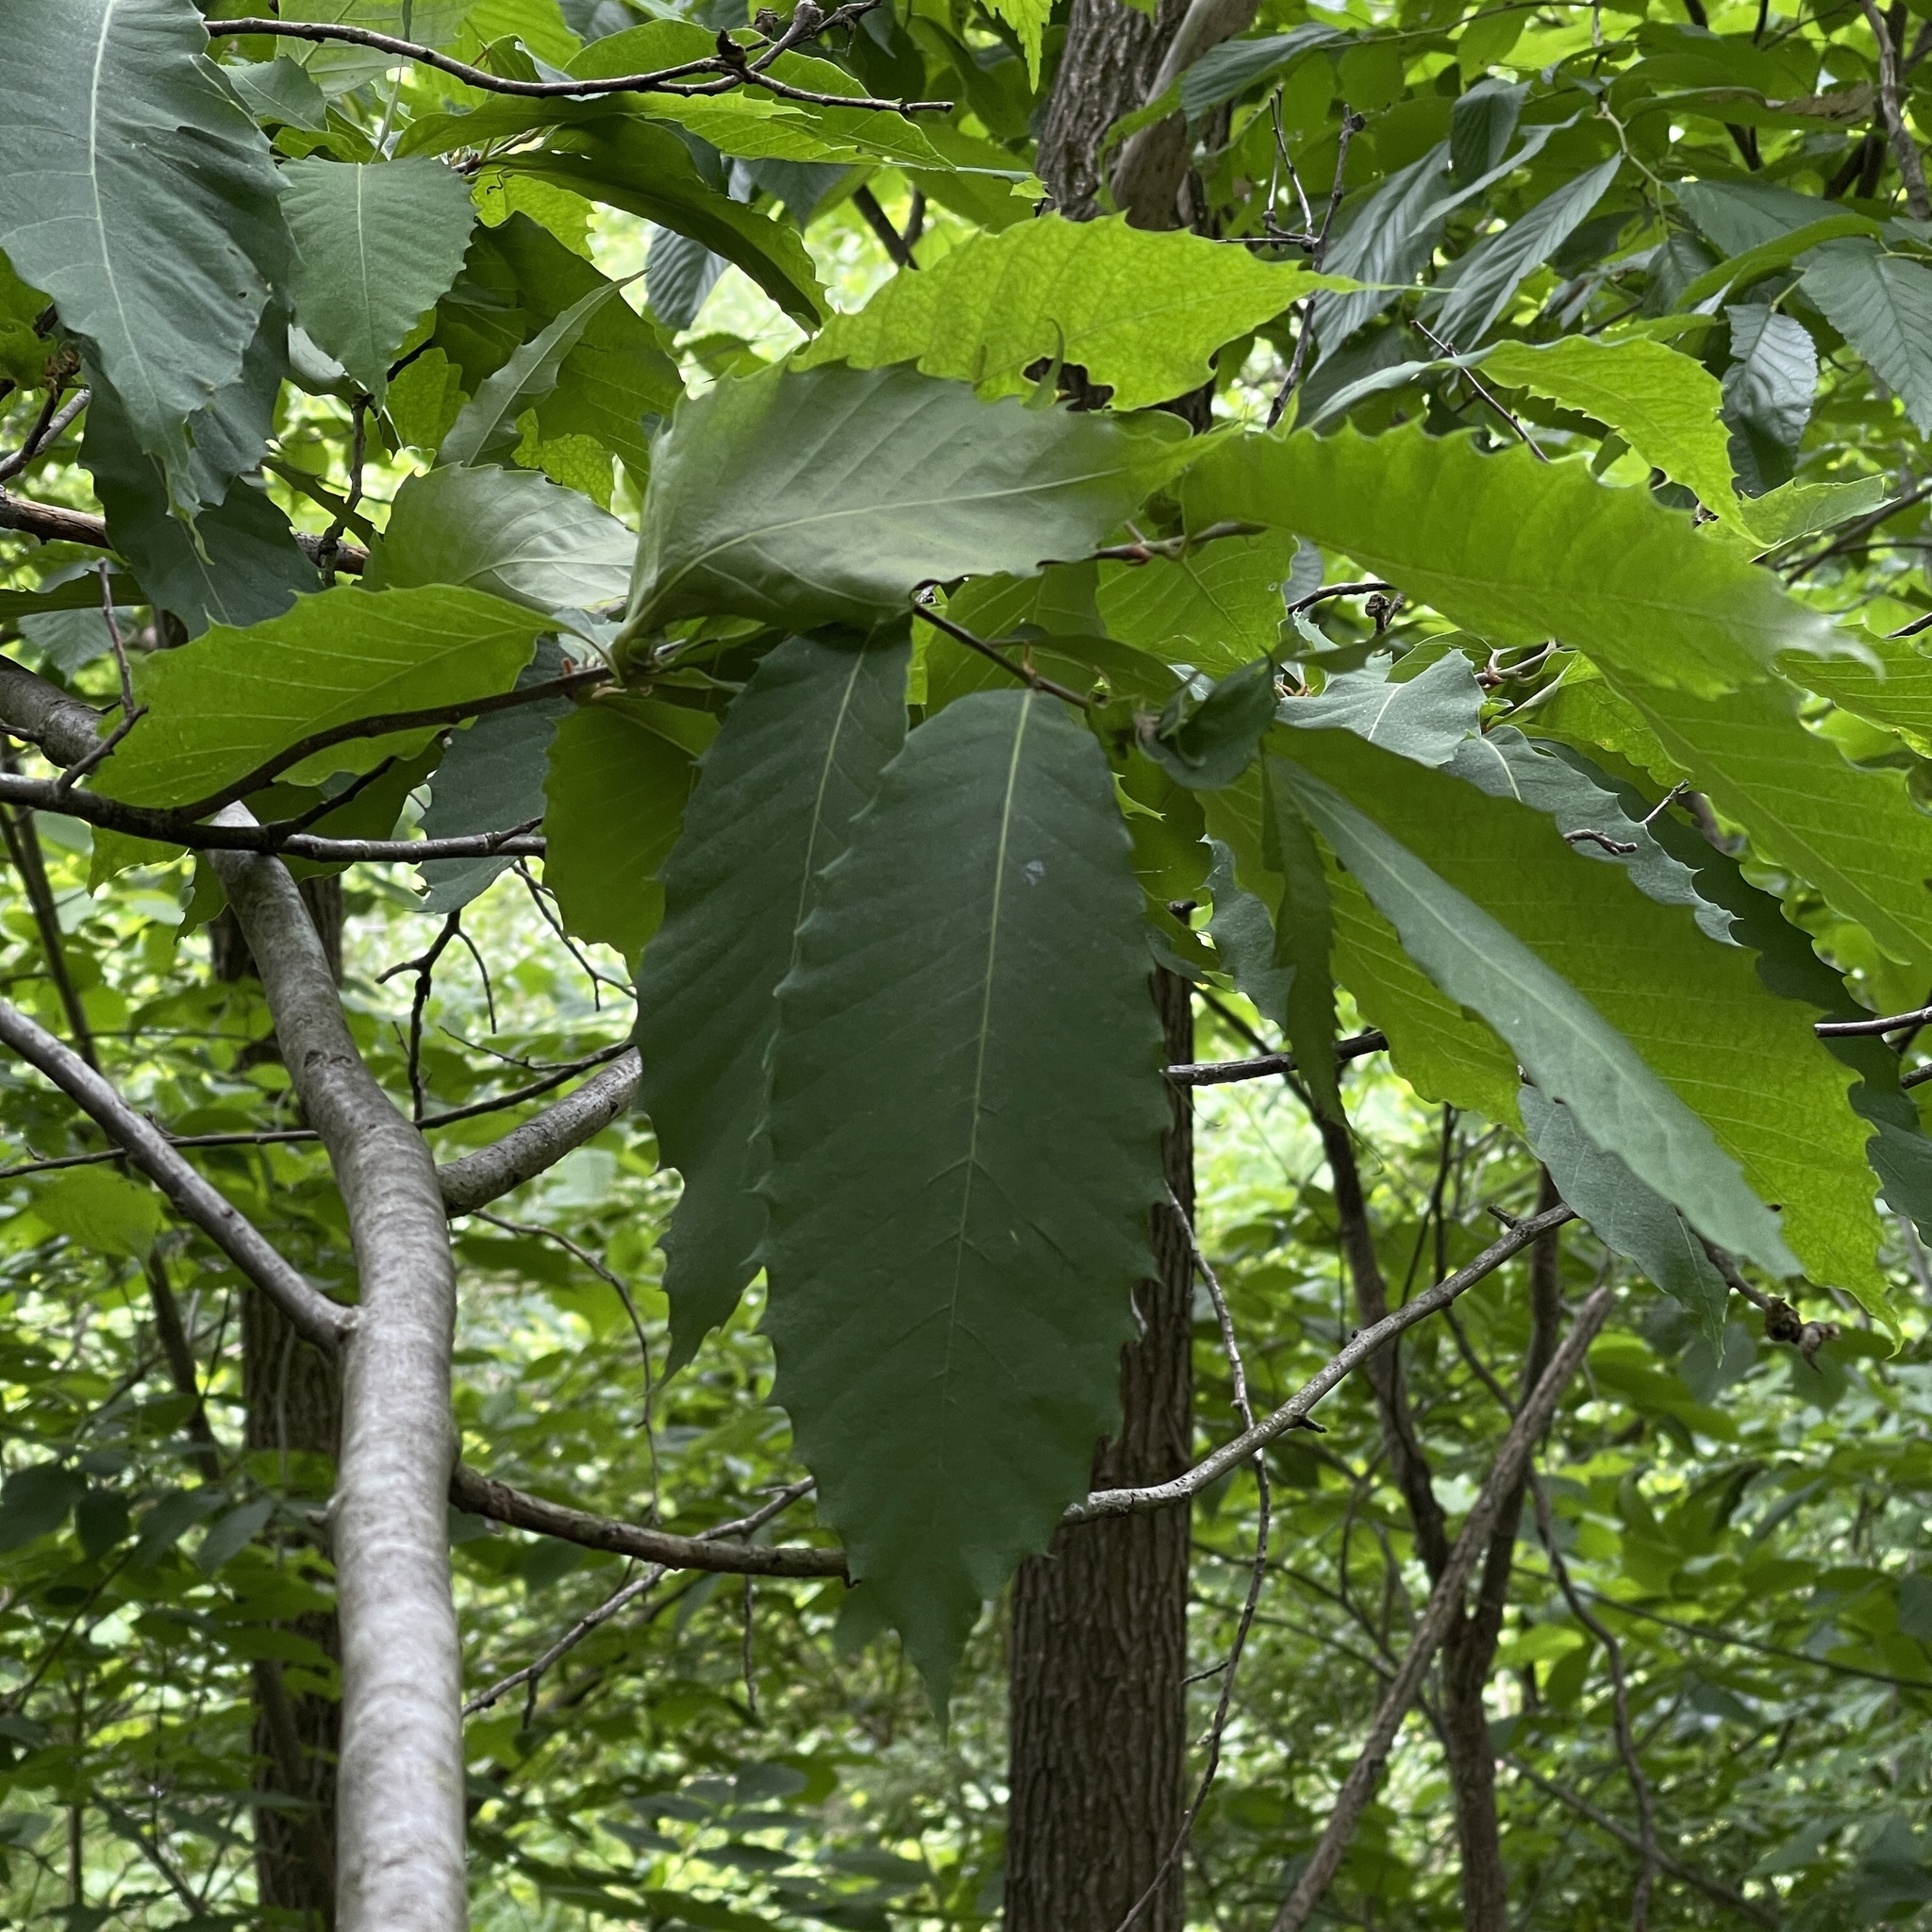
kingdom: Plantae
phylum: Tracheophyta
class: Magnoliopsida
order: Fagales
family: Fagaceae
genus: Castanea
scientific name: Castanea dentata
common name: American chestnut
